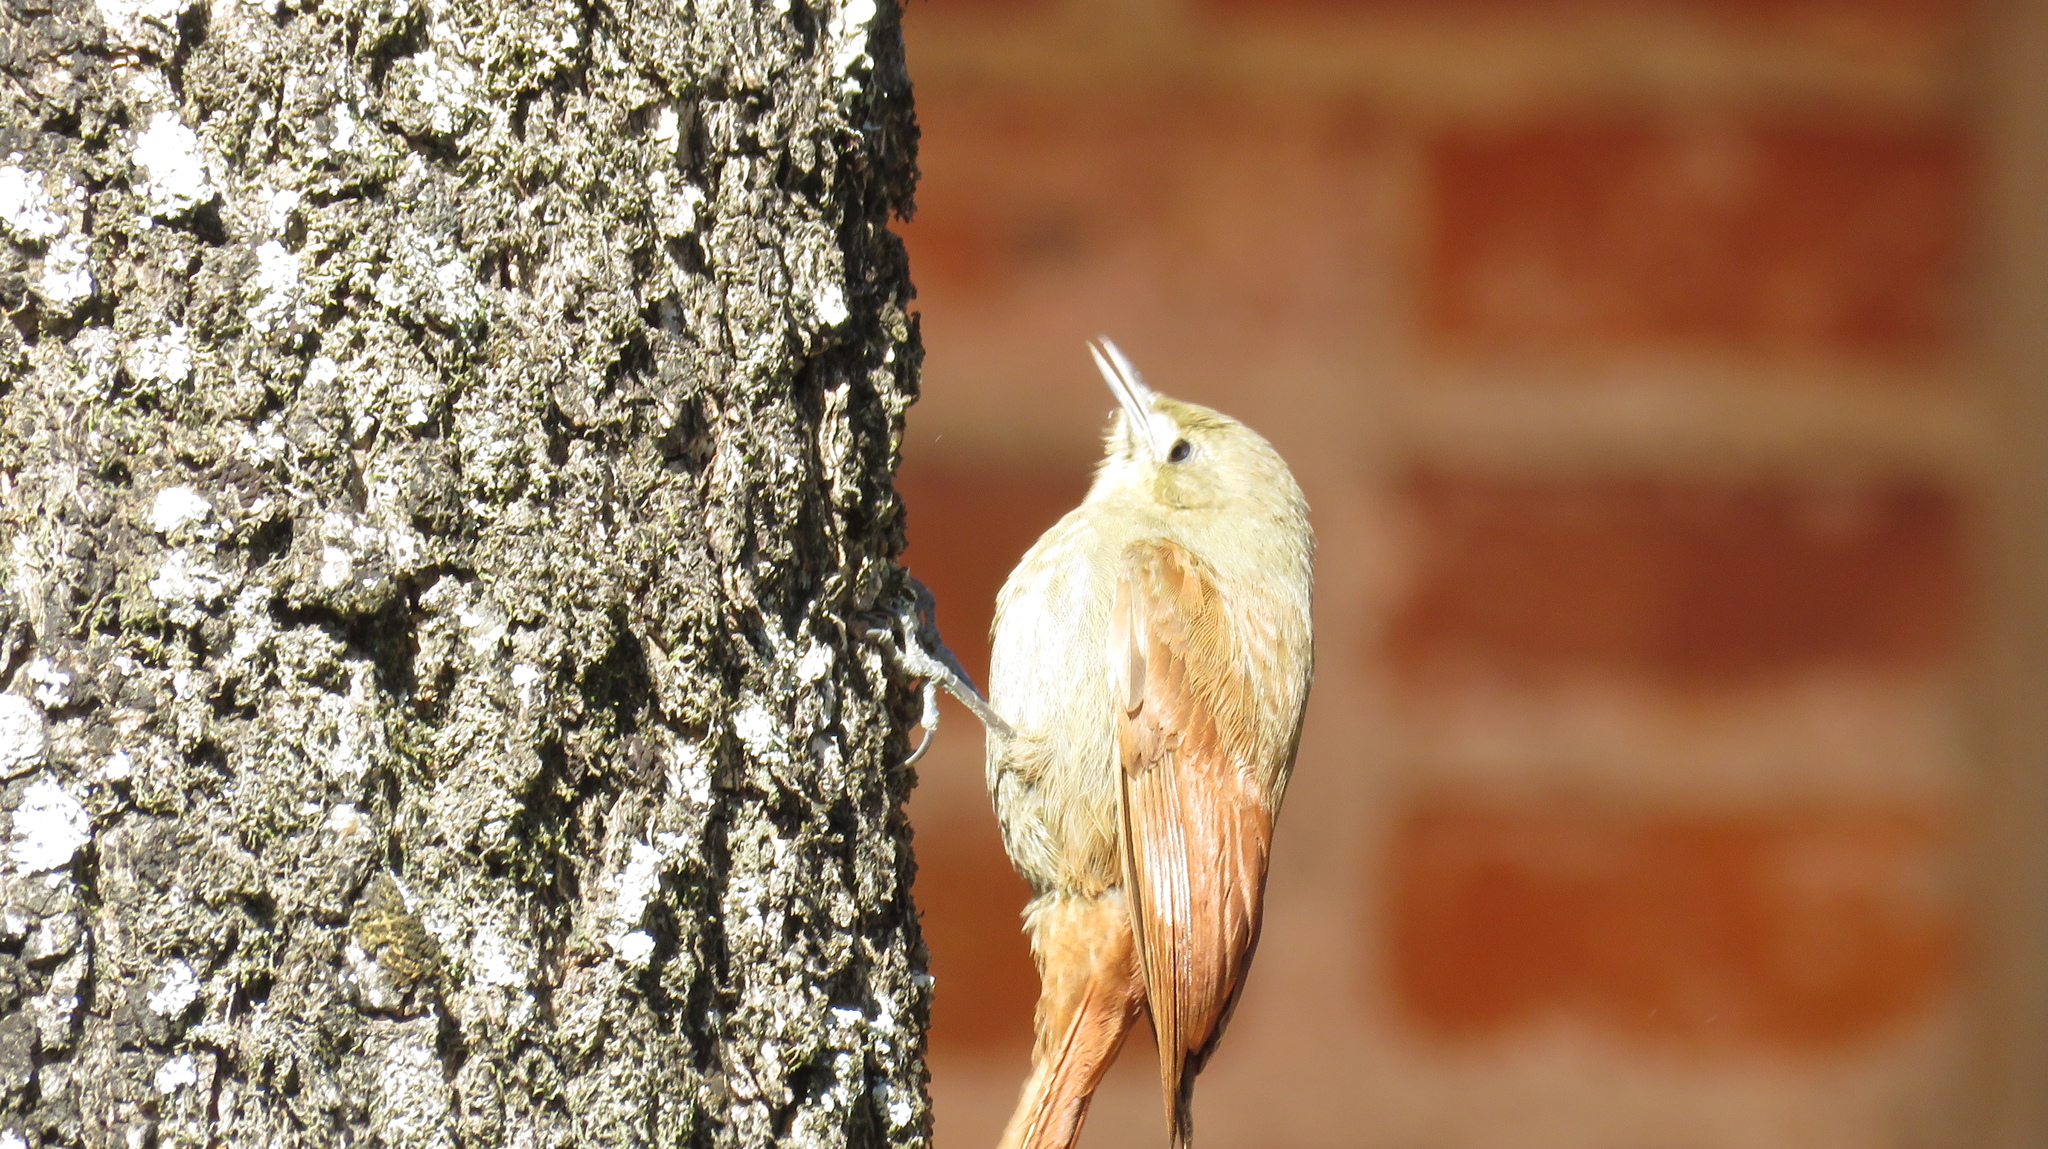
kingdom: Animalia
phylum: Chordata
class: Aves
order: Passeriformes
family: Furnariidae
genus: Sittasomus
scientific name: Sittasomus griseicapillus
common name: Olivaceous woodcreeper
